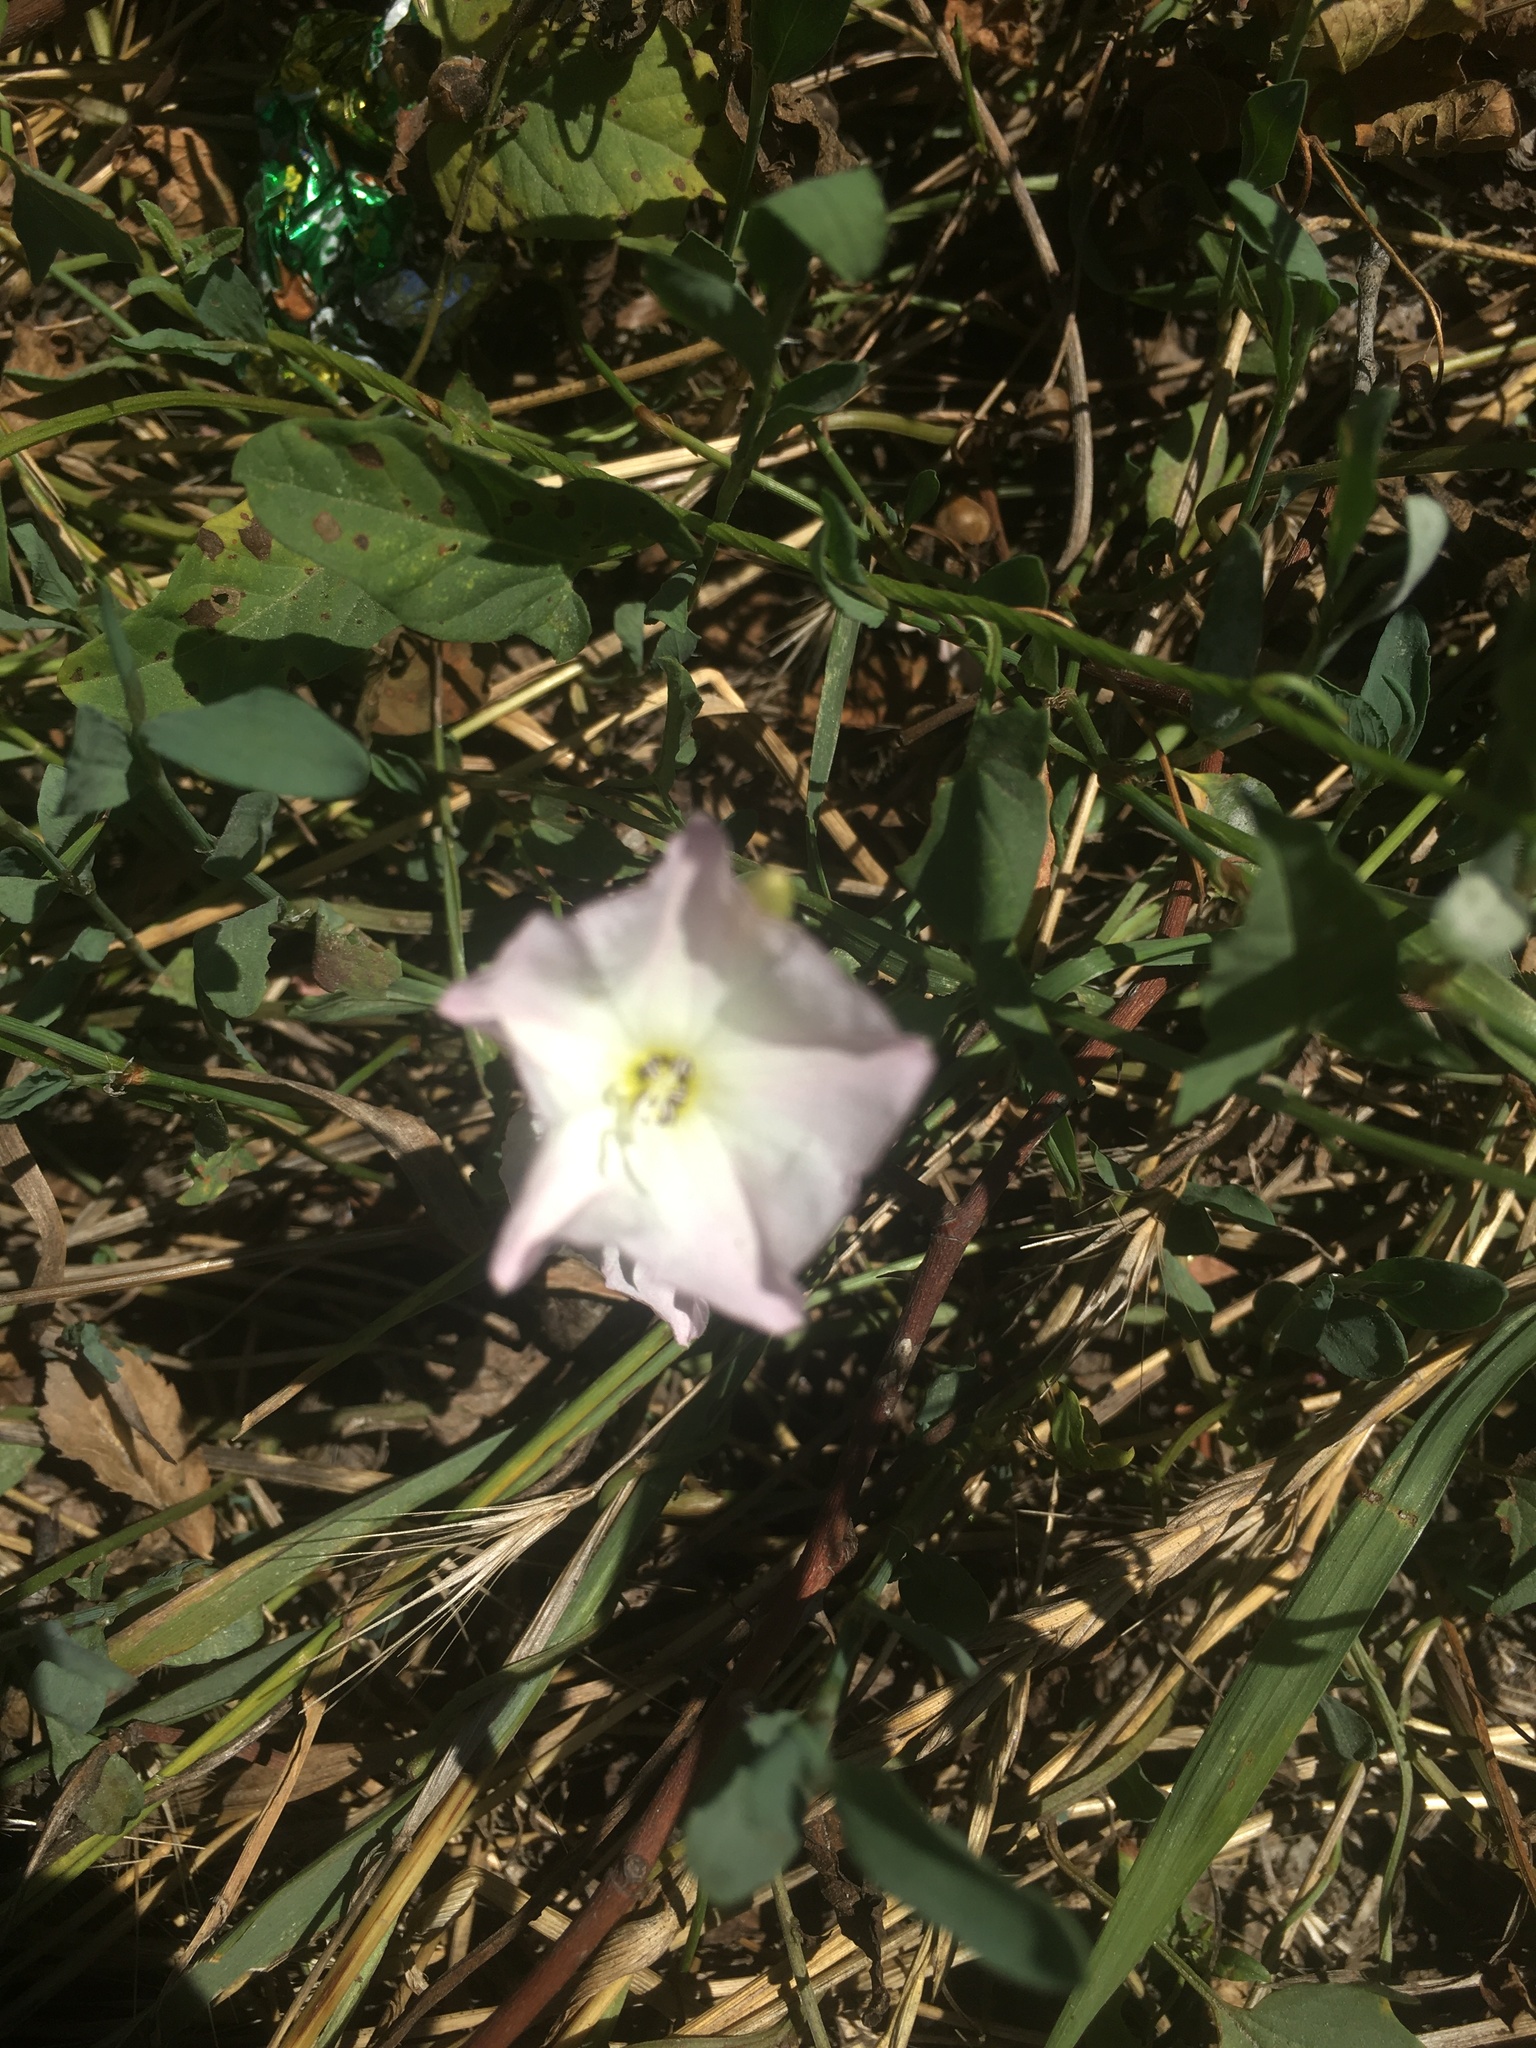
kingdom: Plantae
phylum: Tracheophyta
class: Magnoliopsida
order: Solanales
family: Convolvulaceae
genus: Convolvulus
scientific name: Convolvulus arvensis
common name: Field bindweed
